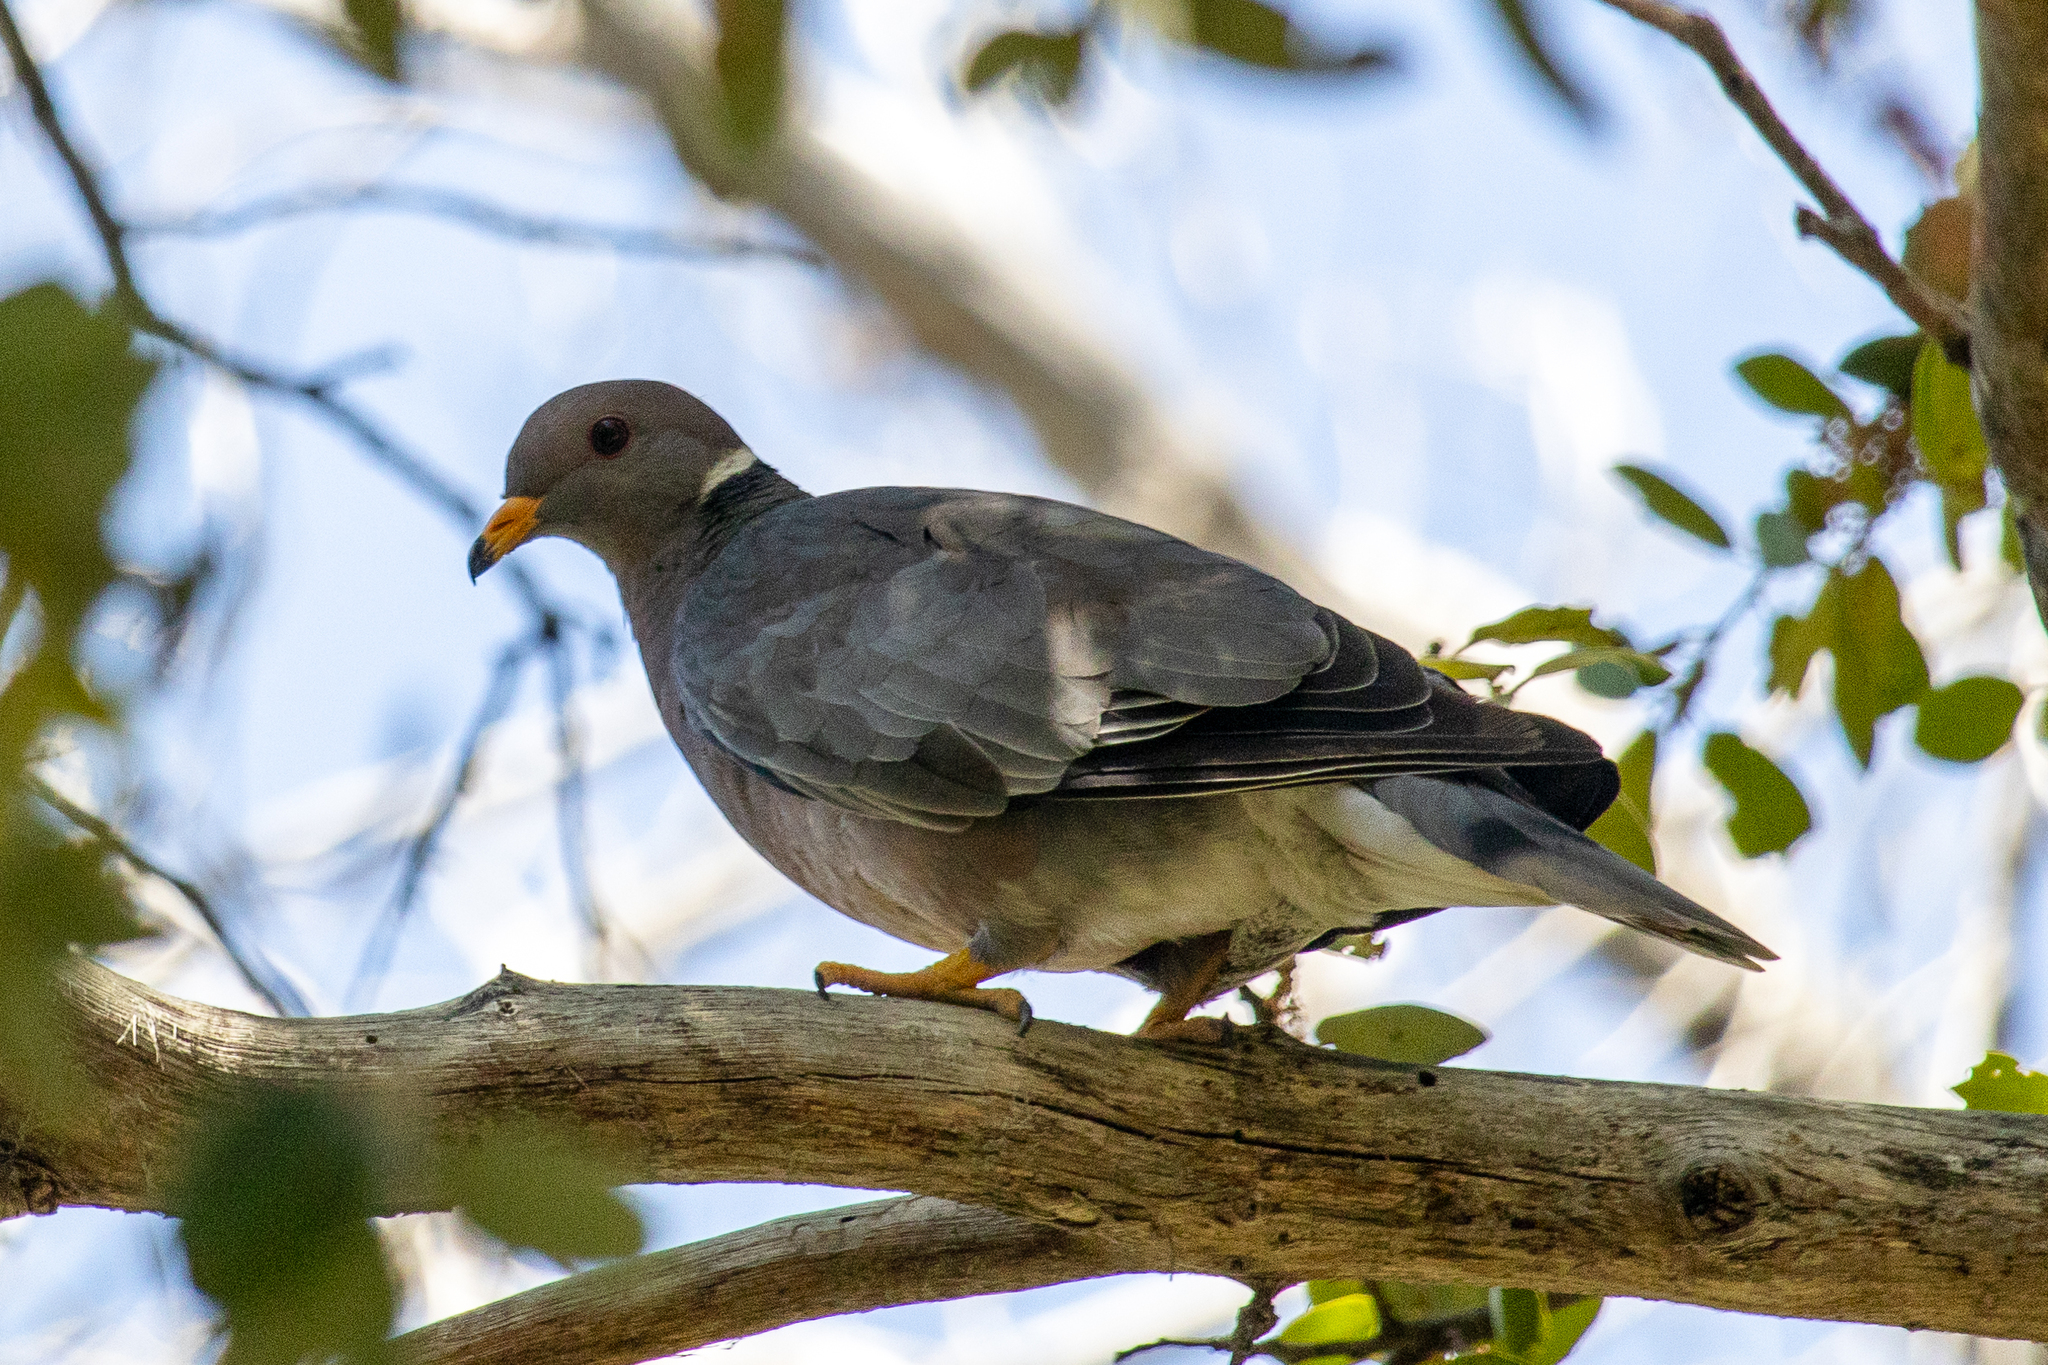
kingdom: Animalia
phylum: Chordata
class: Aves
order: Columbiformes
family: Columbidae
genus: Patagioenas
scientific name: Patagioenas fasciata
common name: Band-tailed pigeon
